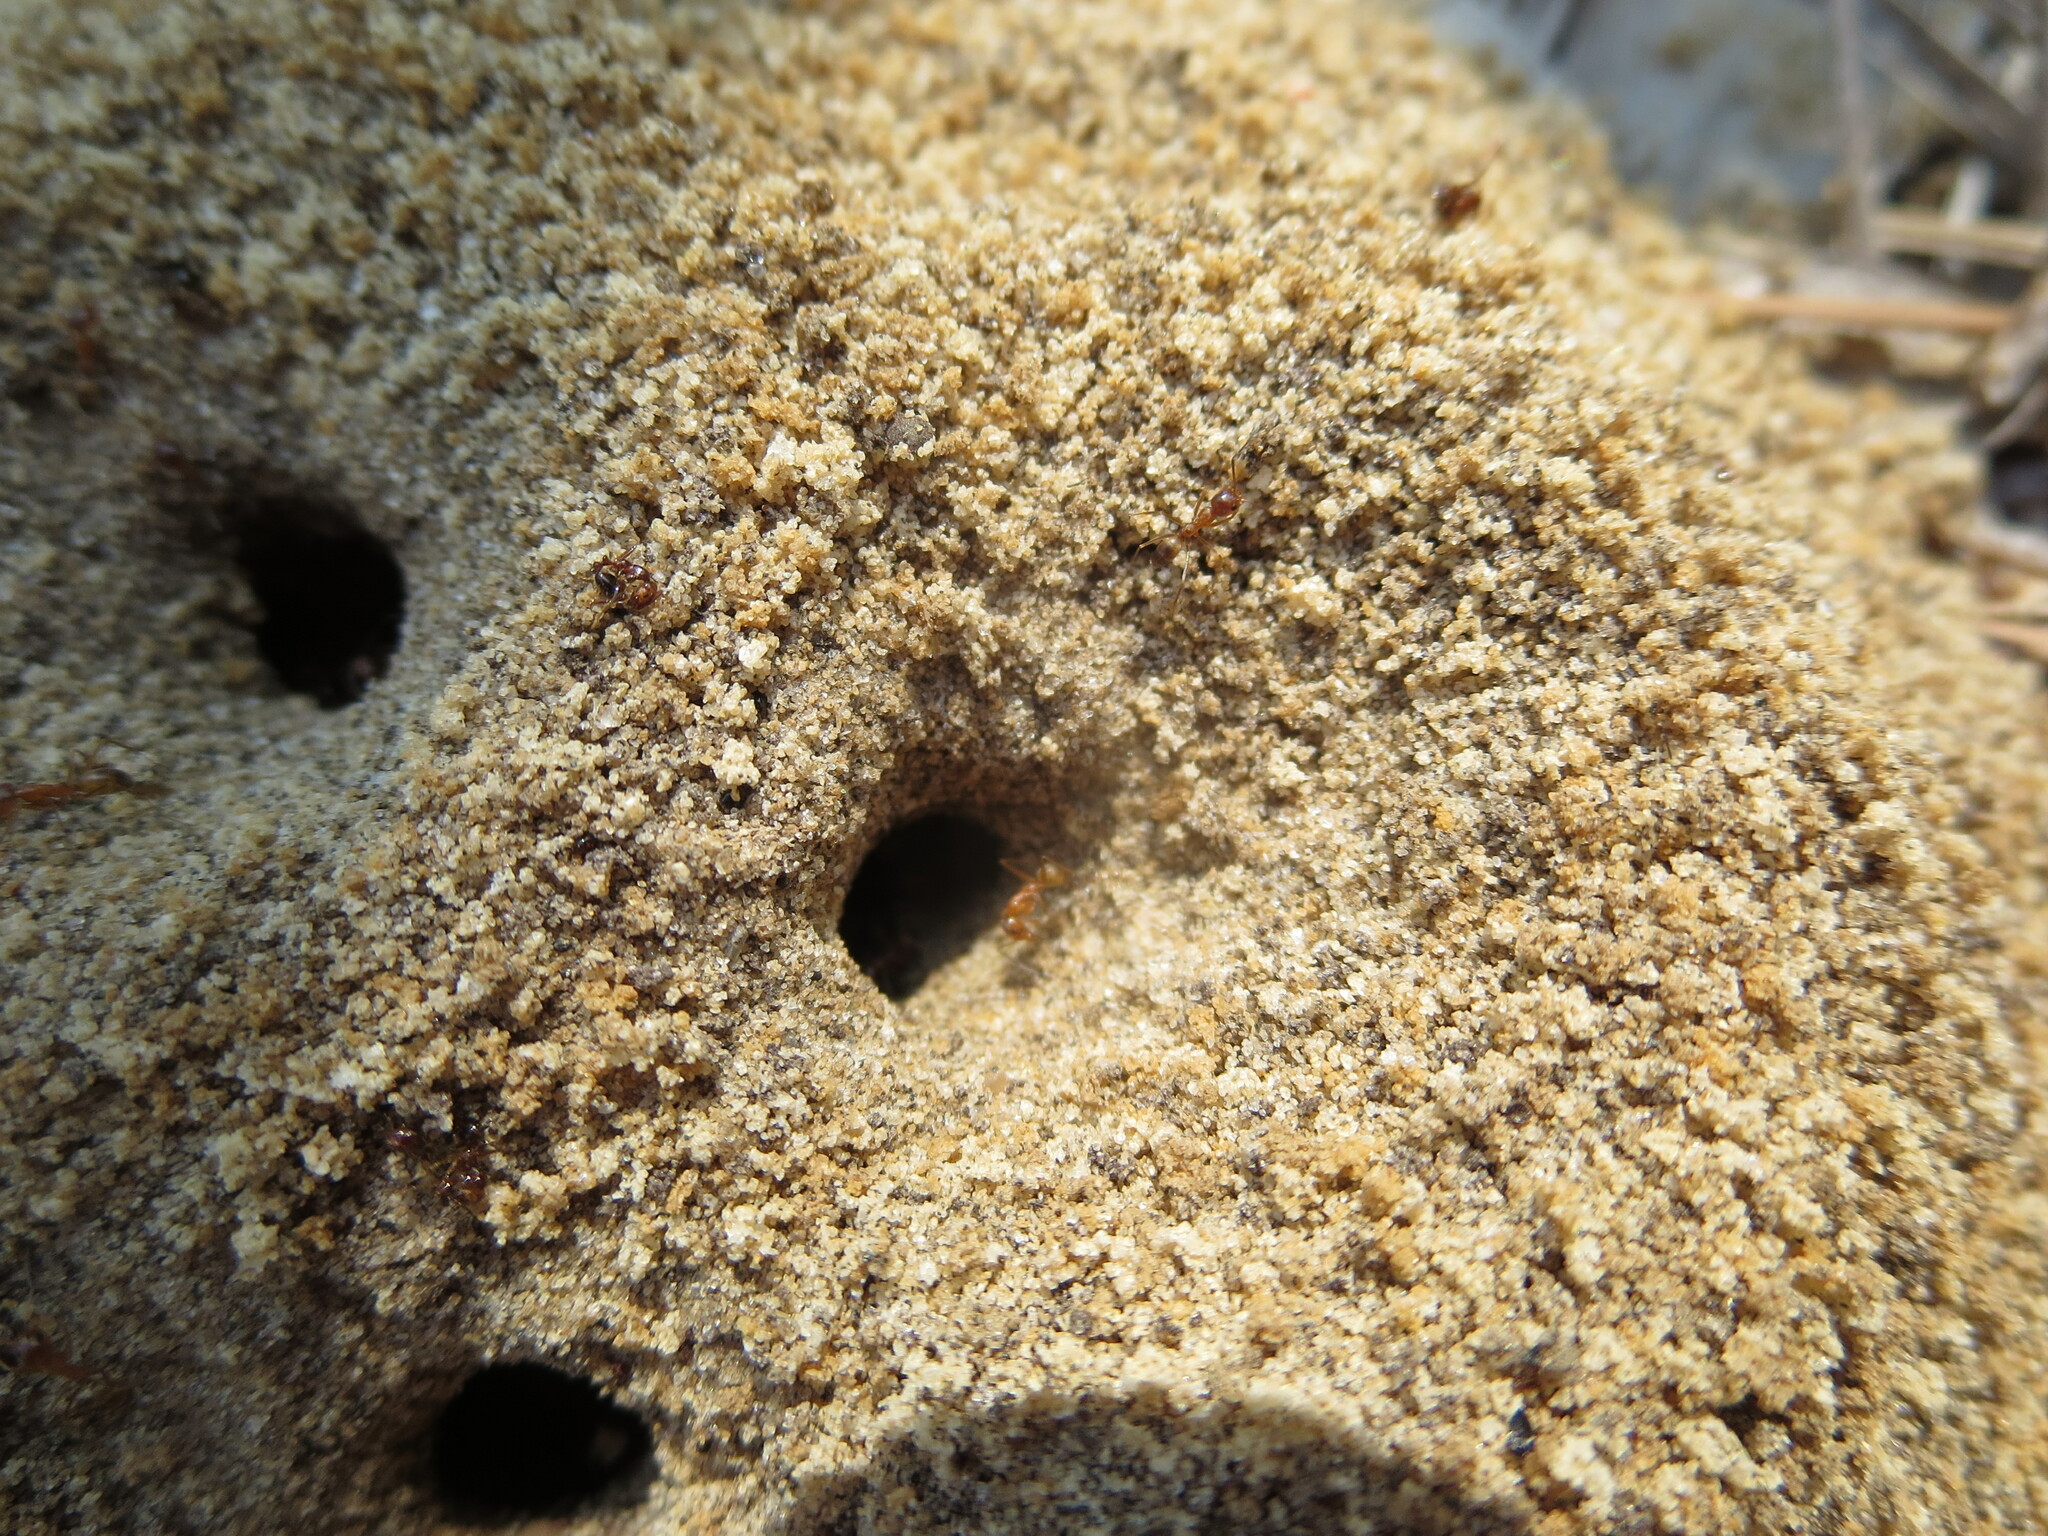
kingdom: Animalia
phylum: Arthropoda
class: Insecta
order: Hymenoptera
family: Formicidae
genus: Dorymyrmex
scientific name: Dorymyrmex bureni
